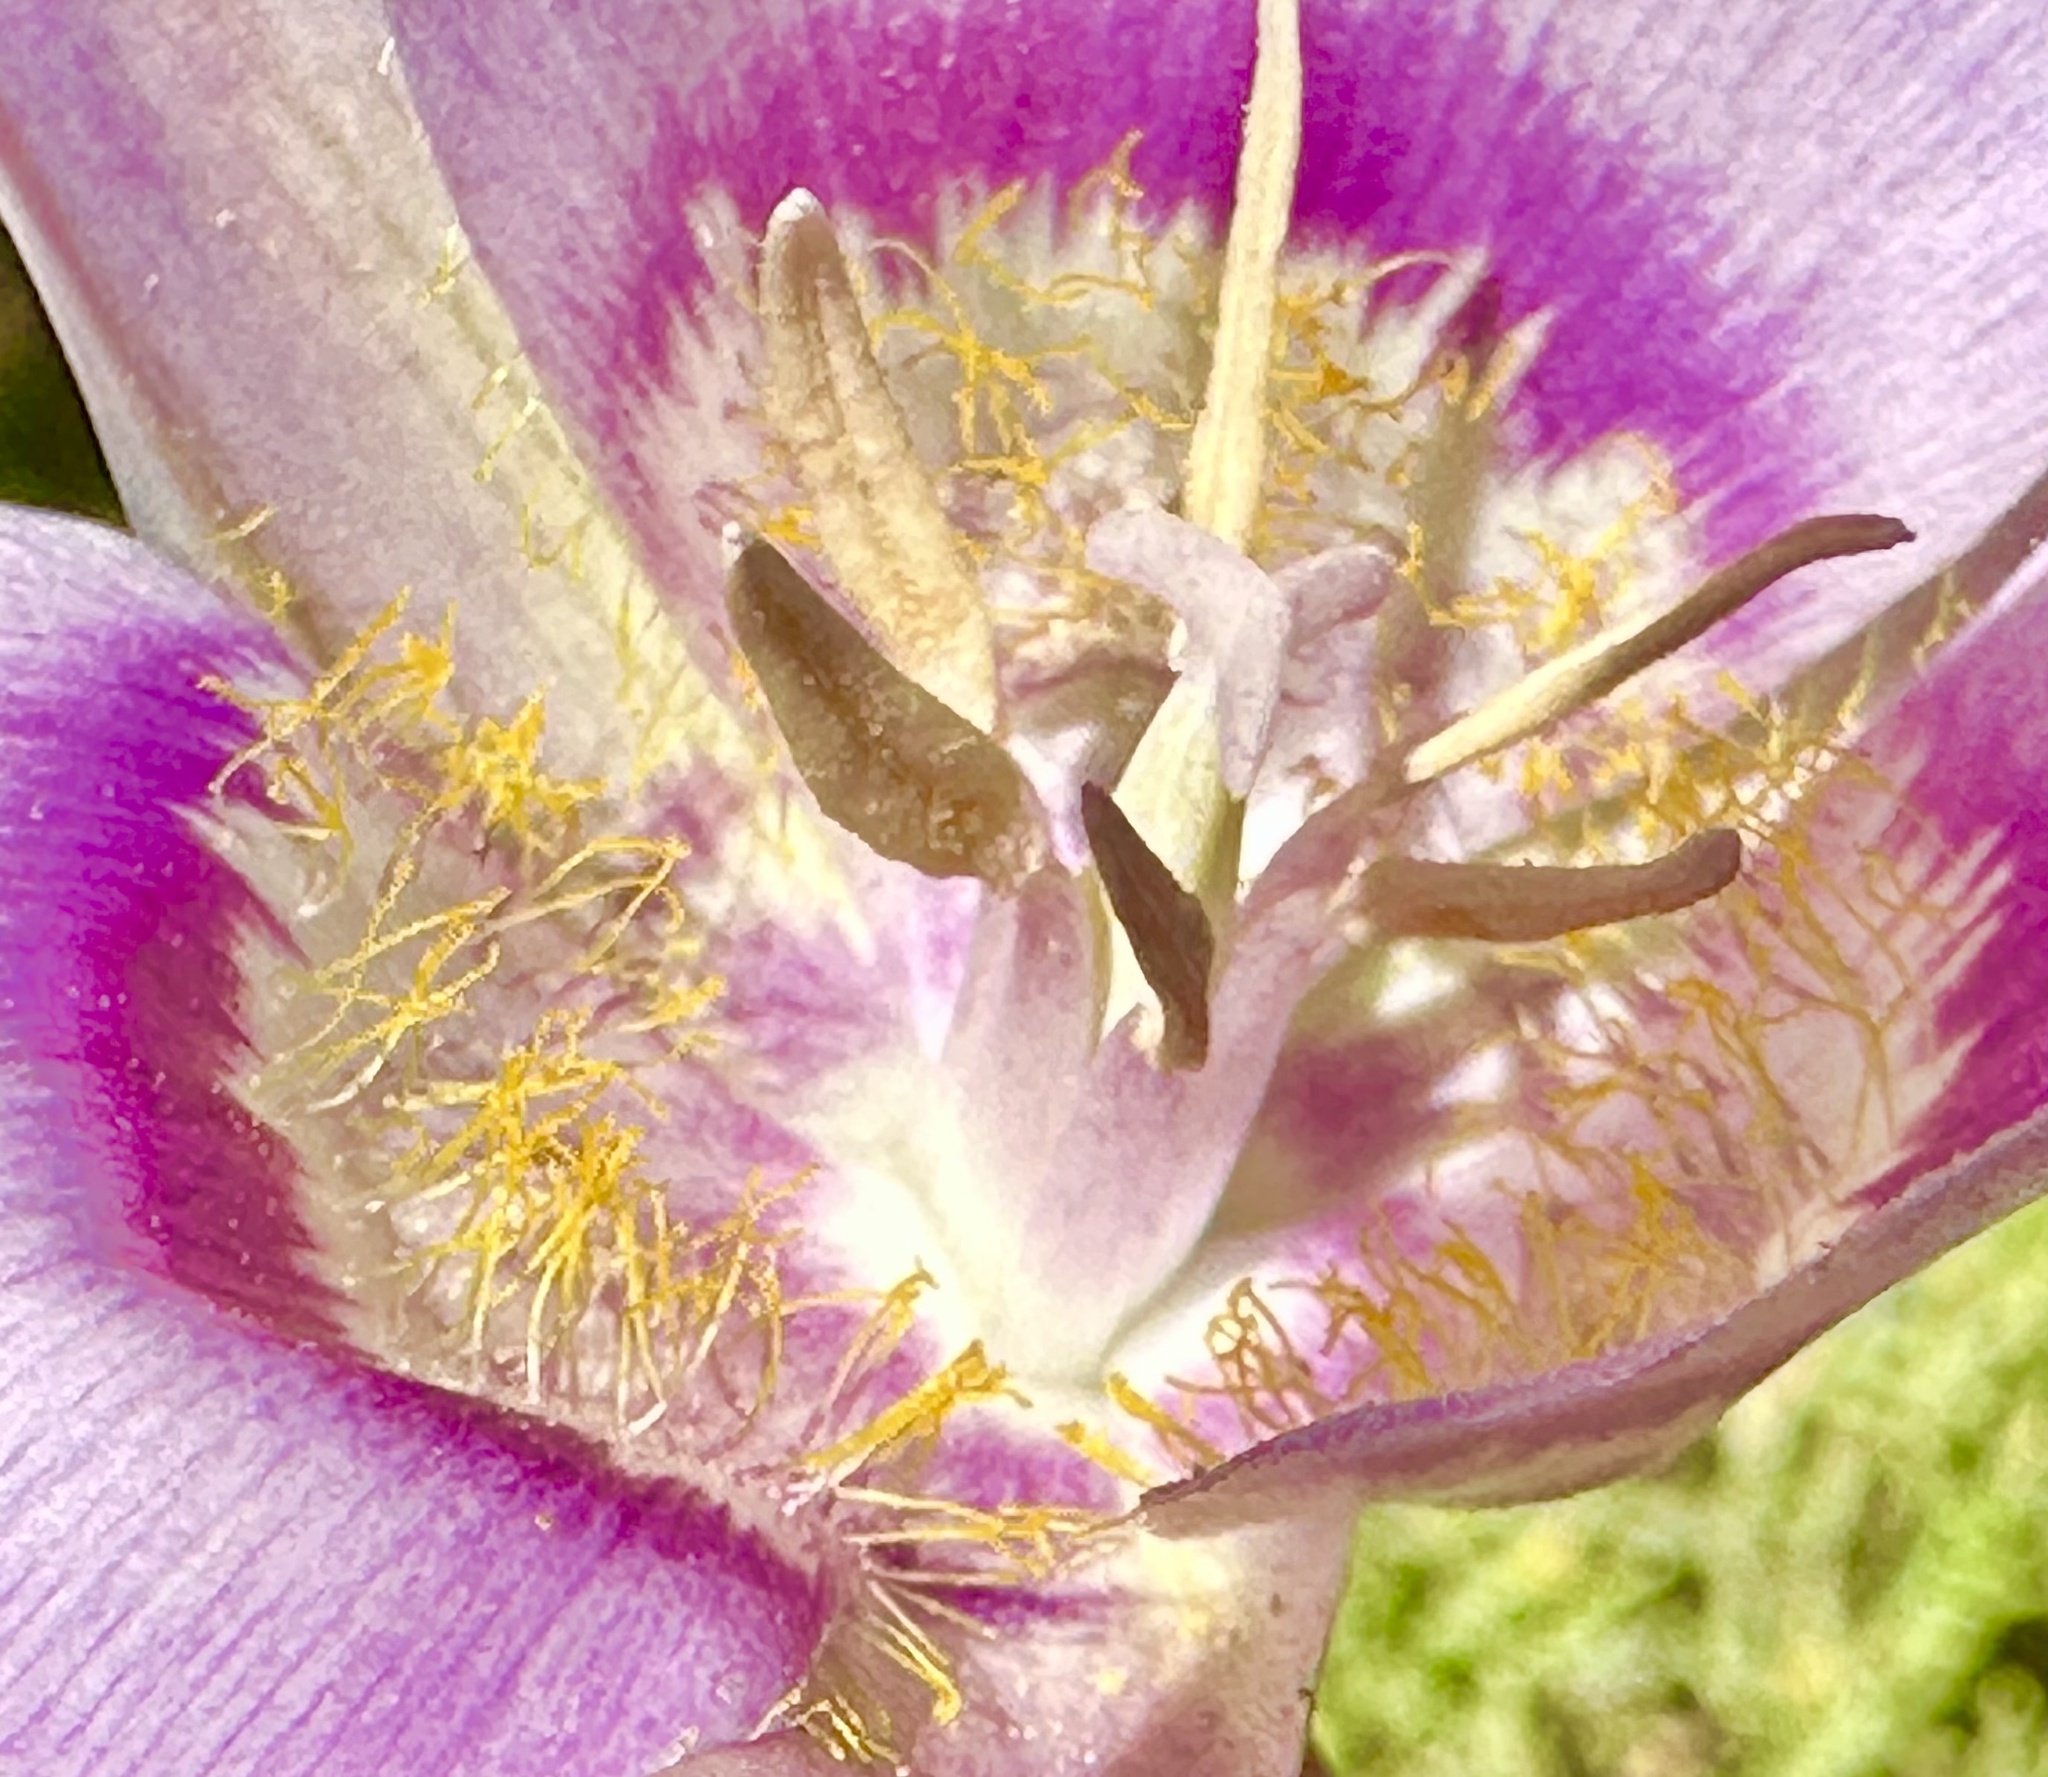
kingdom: Plantae
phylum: Tracheophyta
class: Liliopsida
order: Liliales
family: Liliaceae
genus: Calochortus
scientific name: Calochortus macrocarpus
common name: Green-band mariposa lily
